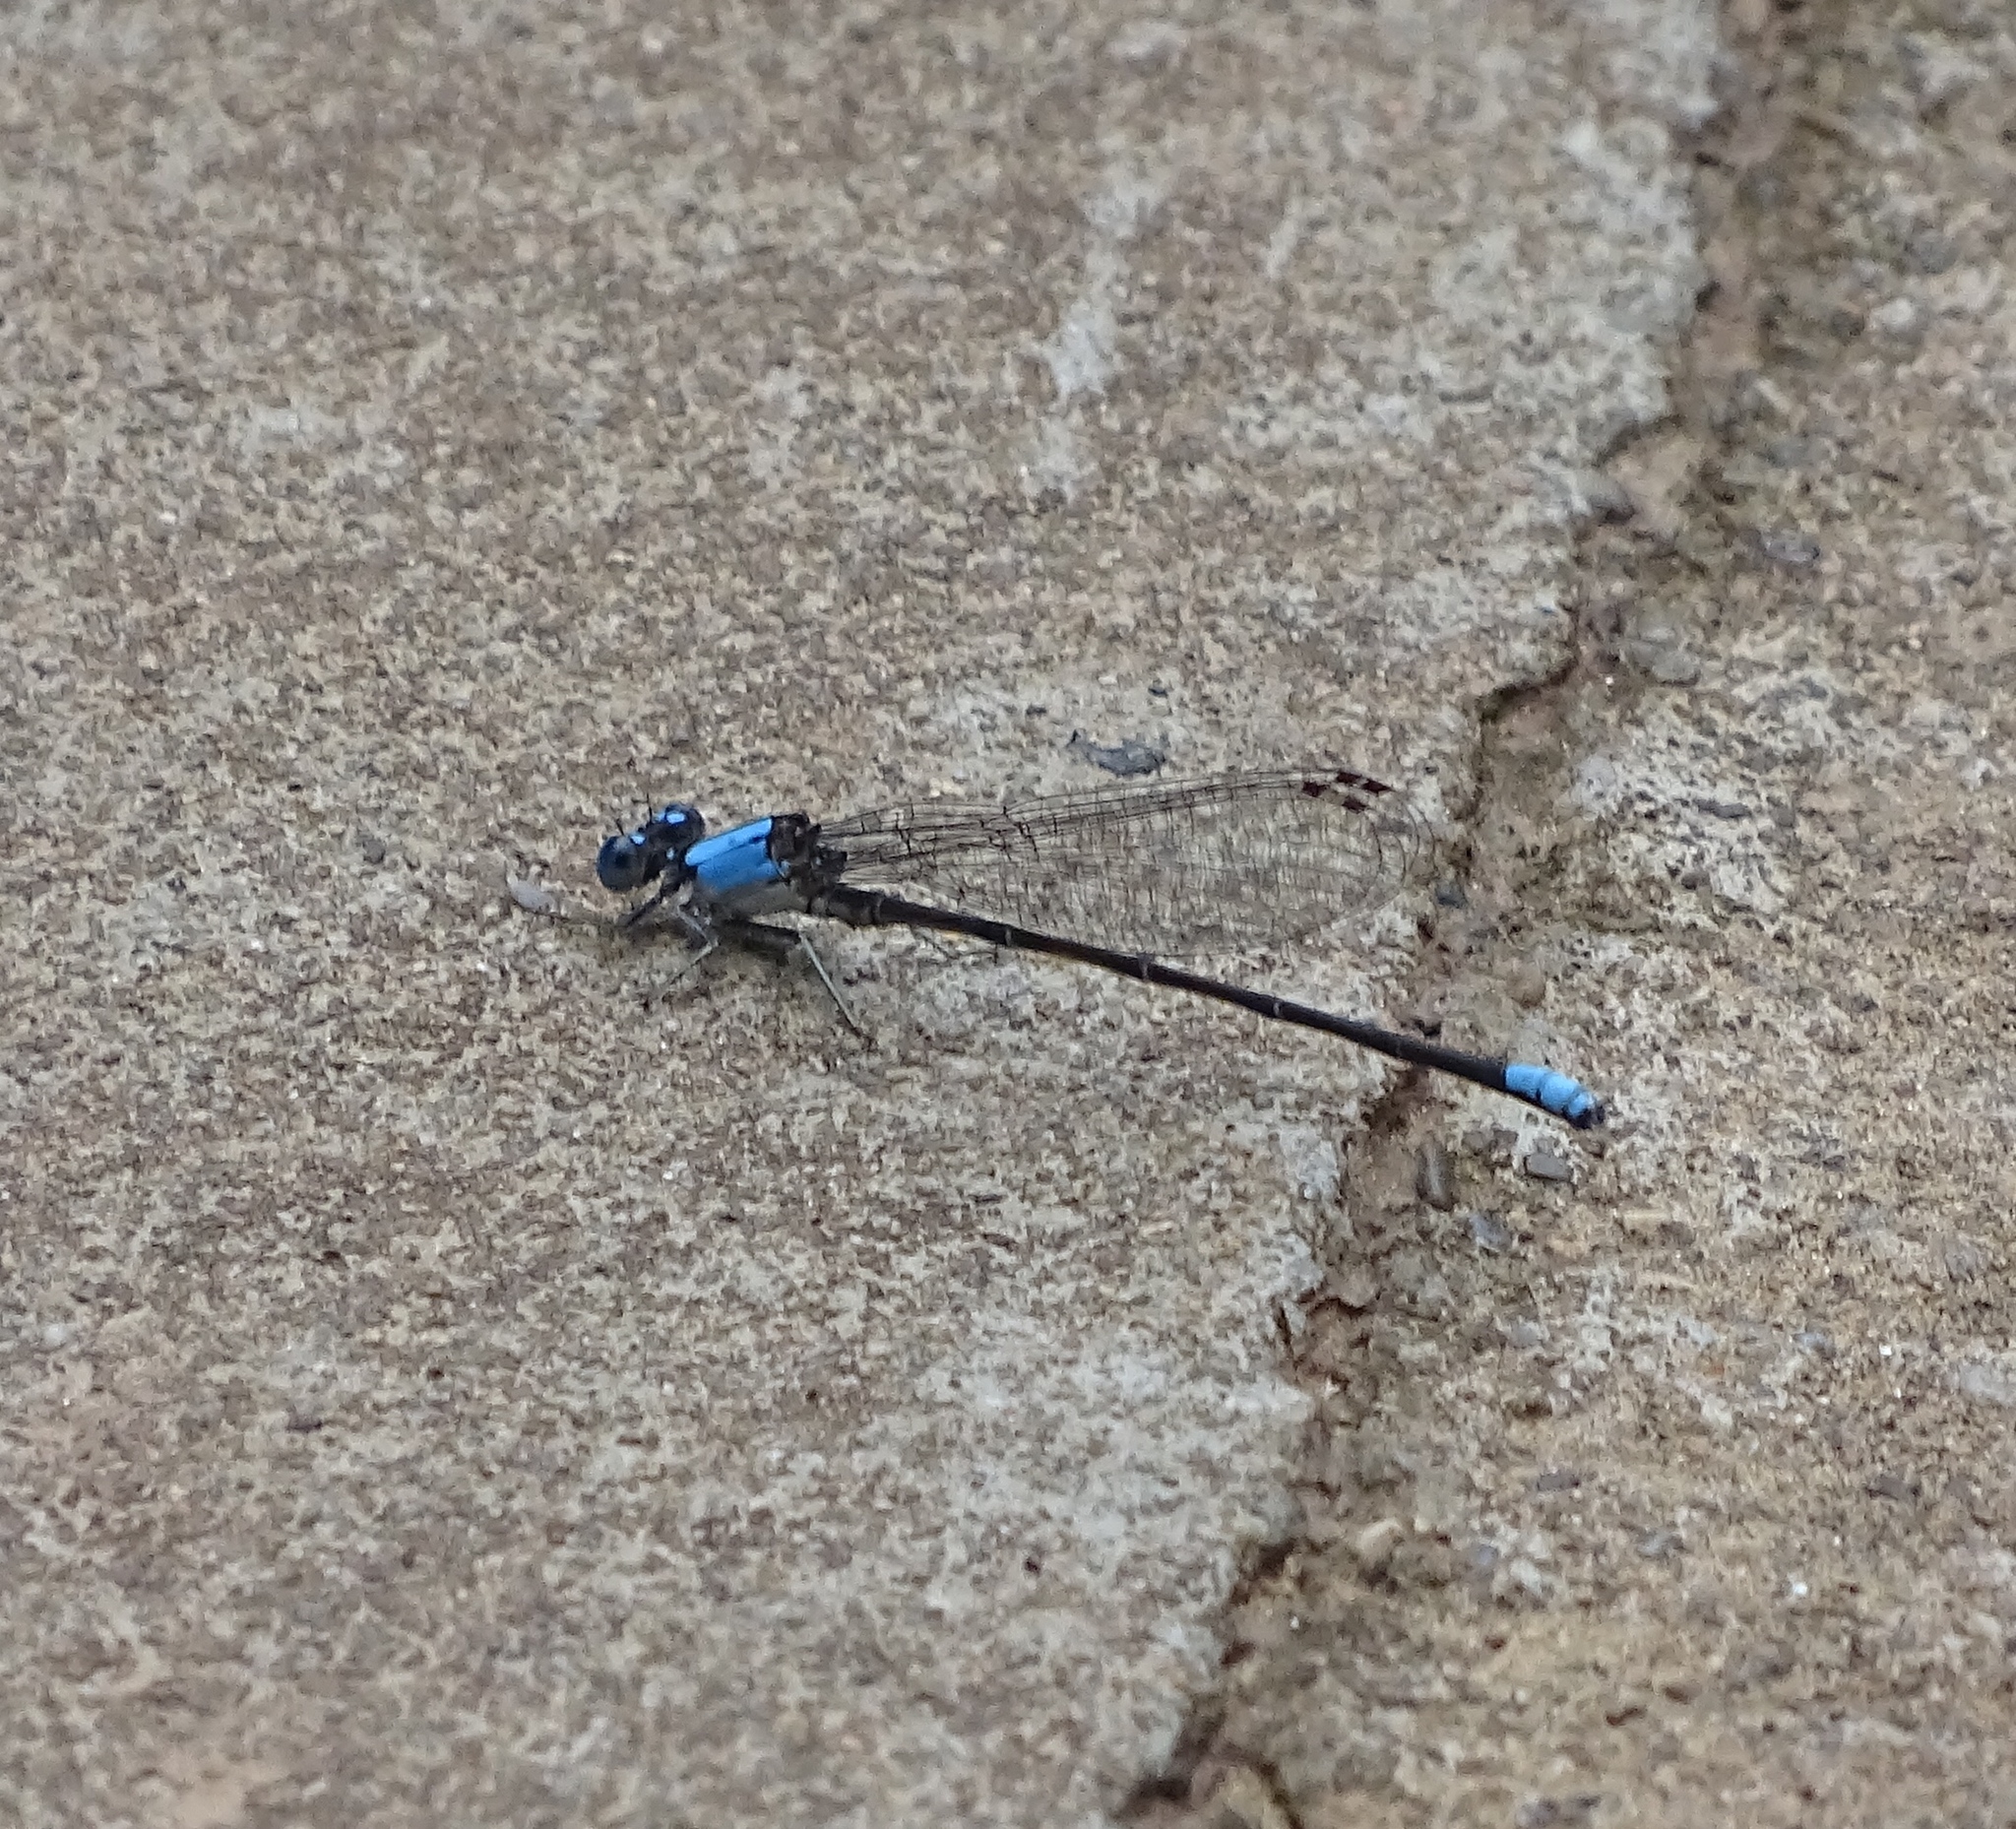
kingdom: Animalia
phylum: Arthropoda
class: Insecta
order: Odonata
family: Coenagrionidae
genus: Argia
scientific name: Argia apicalis
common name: Blue-fronted dancer
